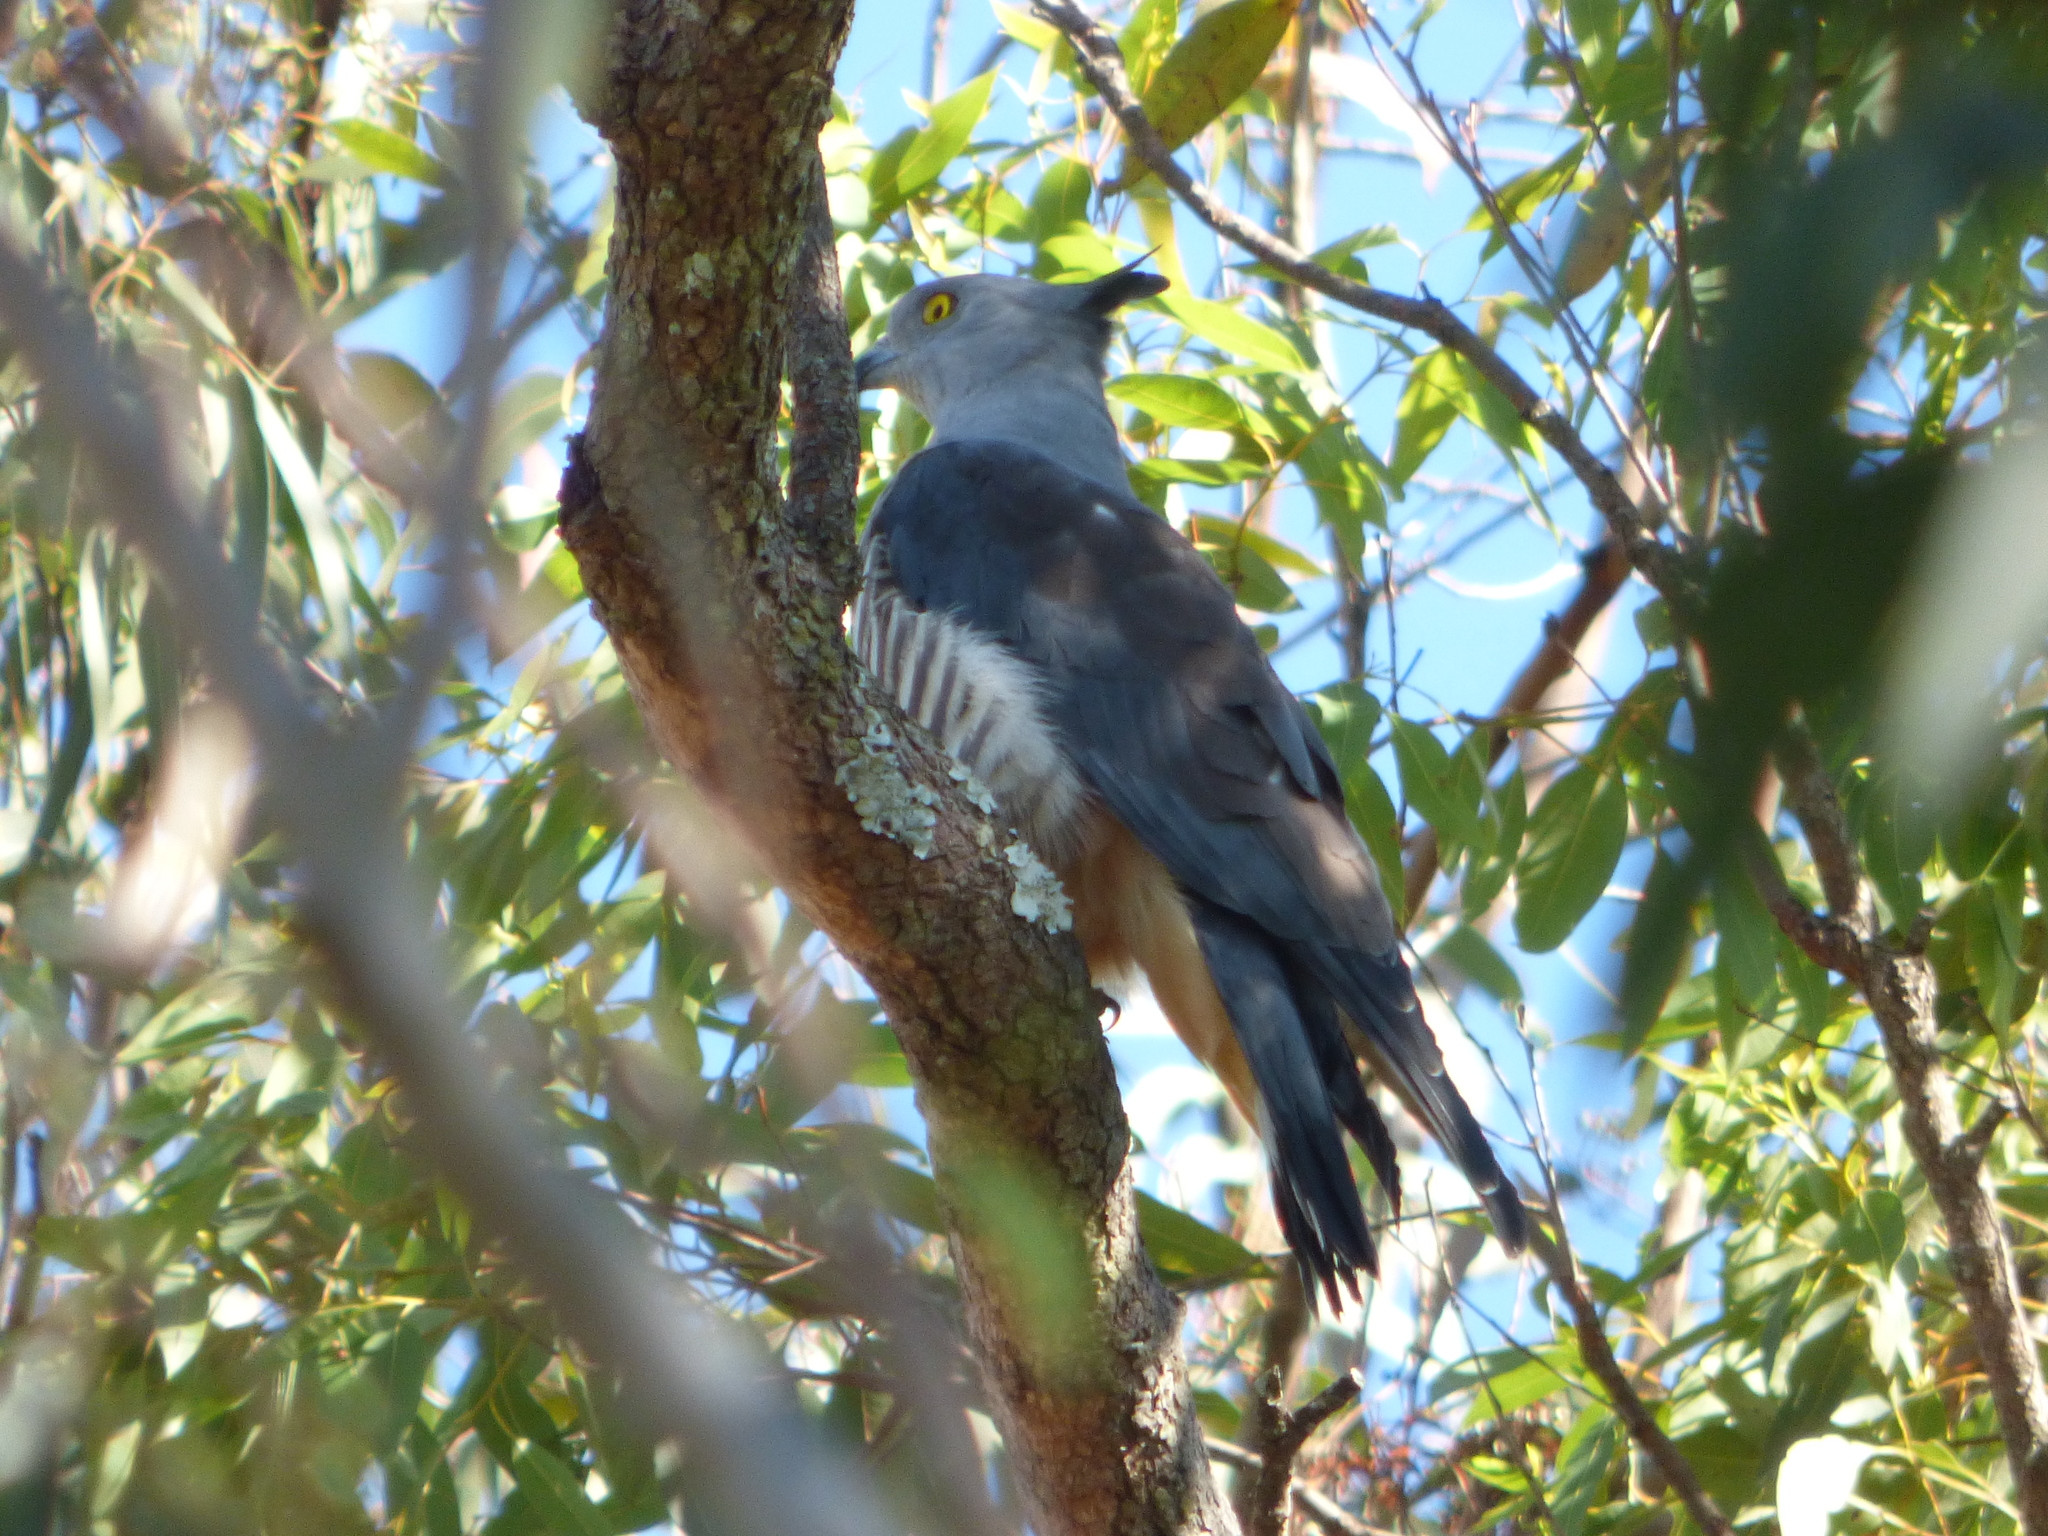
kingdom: Animalia
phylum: Chordata
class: Aves
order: Accipitriformes
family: Accipitridae
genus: Aviceda
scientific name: Aviceda subcristata
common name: Pacific baza
